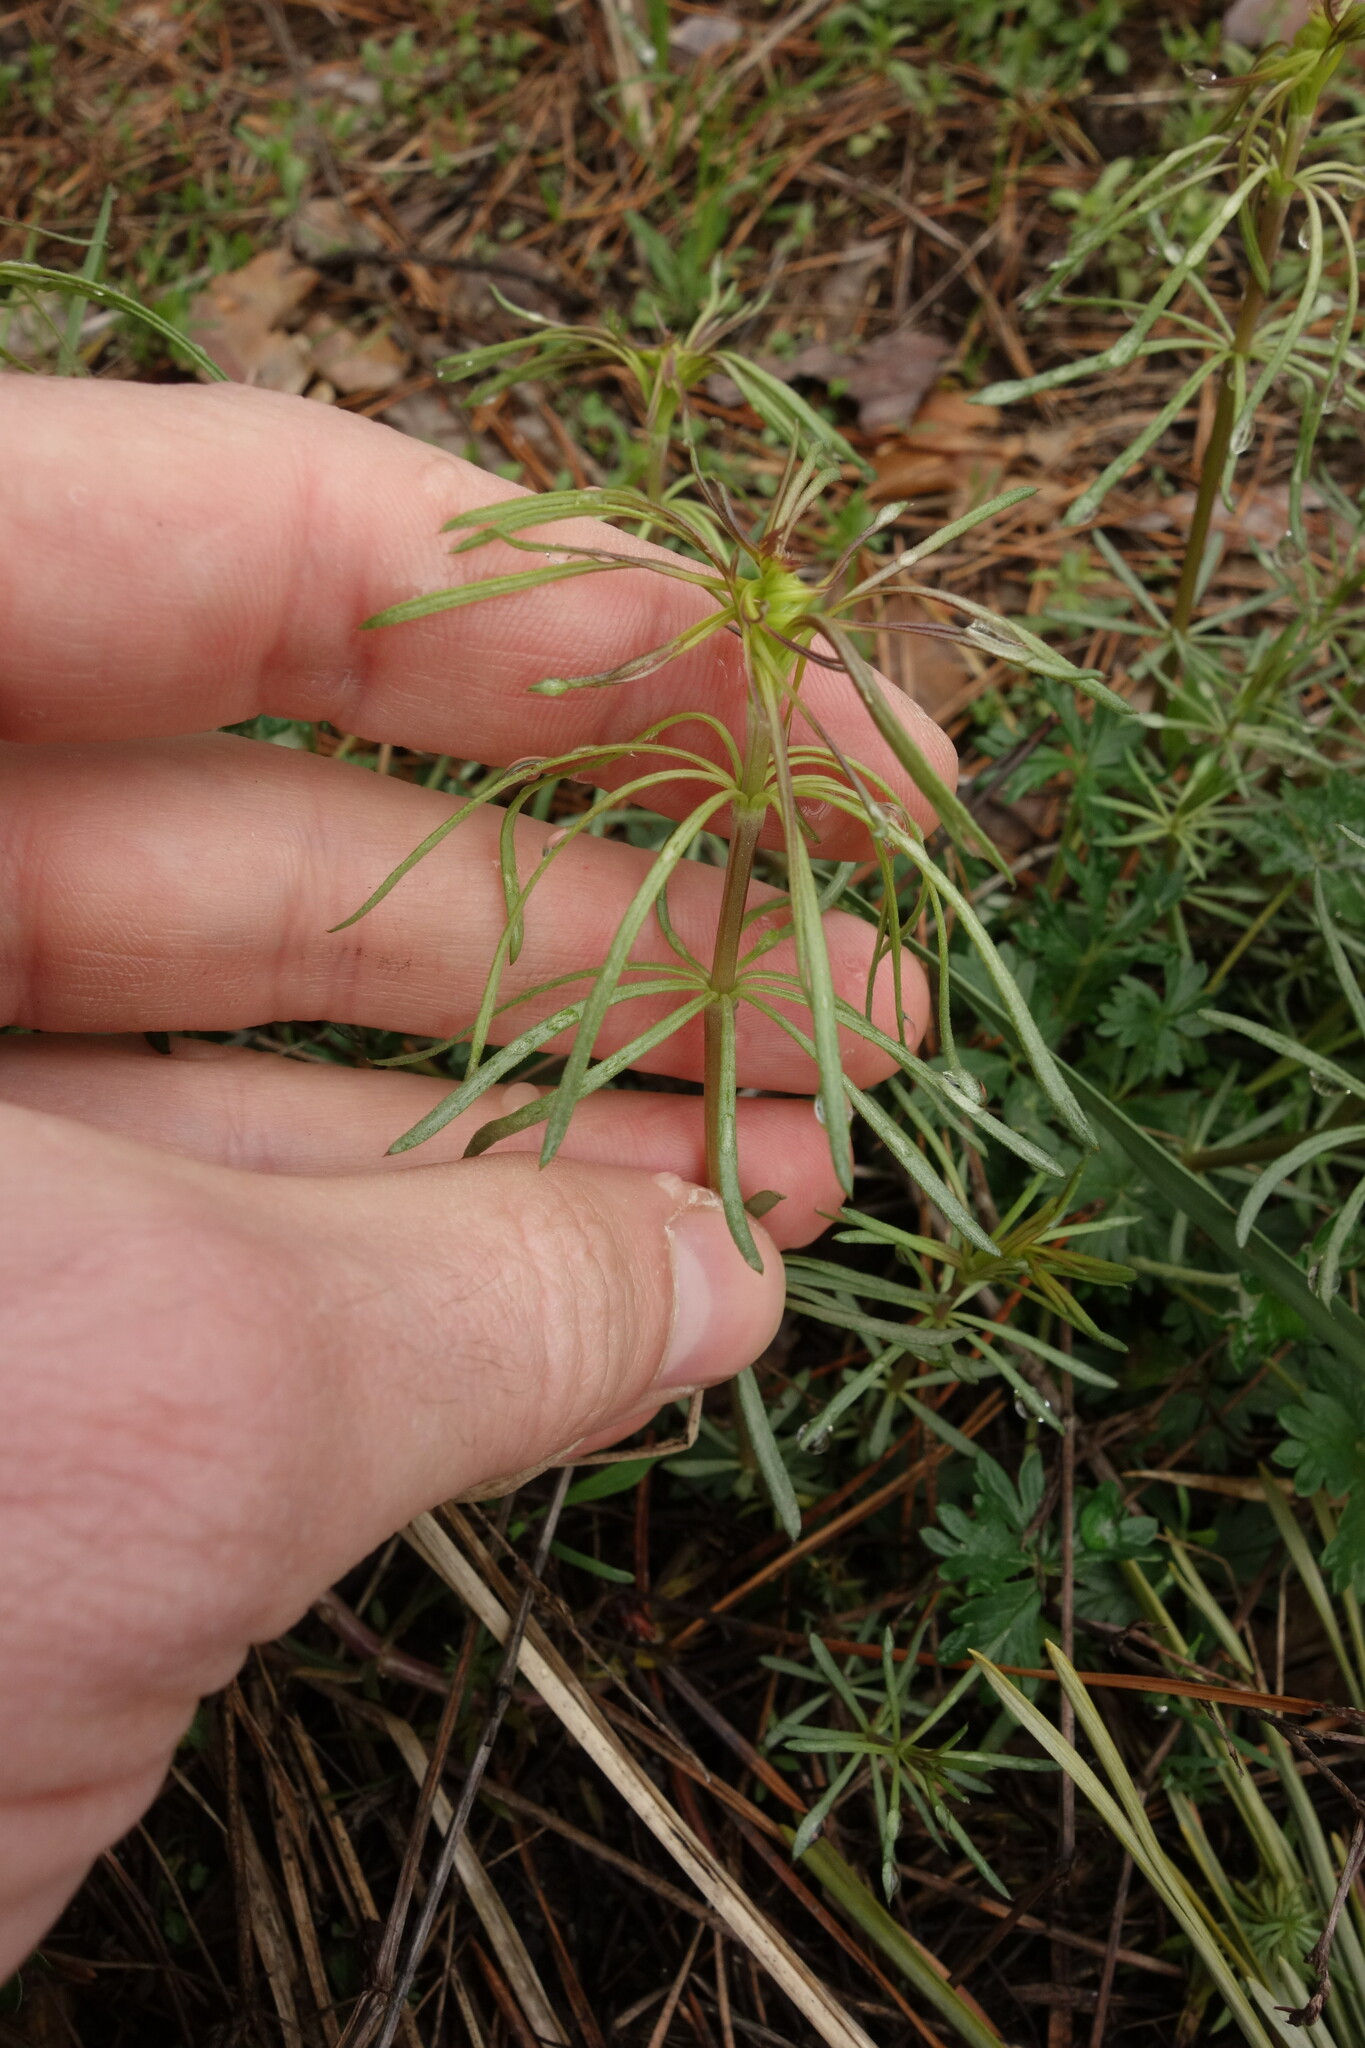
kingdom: Plantae
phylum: Tracheophyta
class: Magnoliopsida
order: Gentianales
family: Rubiaceae
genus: Galium
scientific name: Galium verum
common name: Lady's bedstraw
